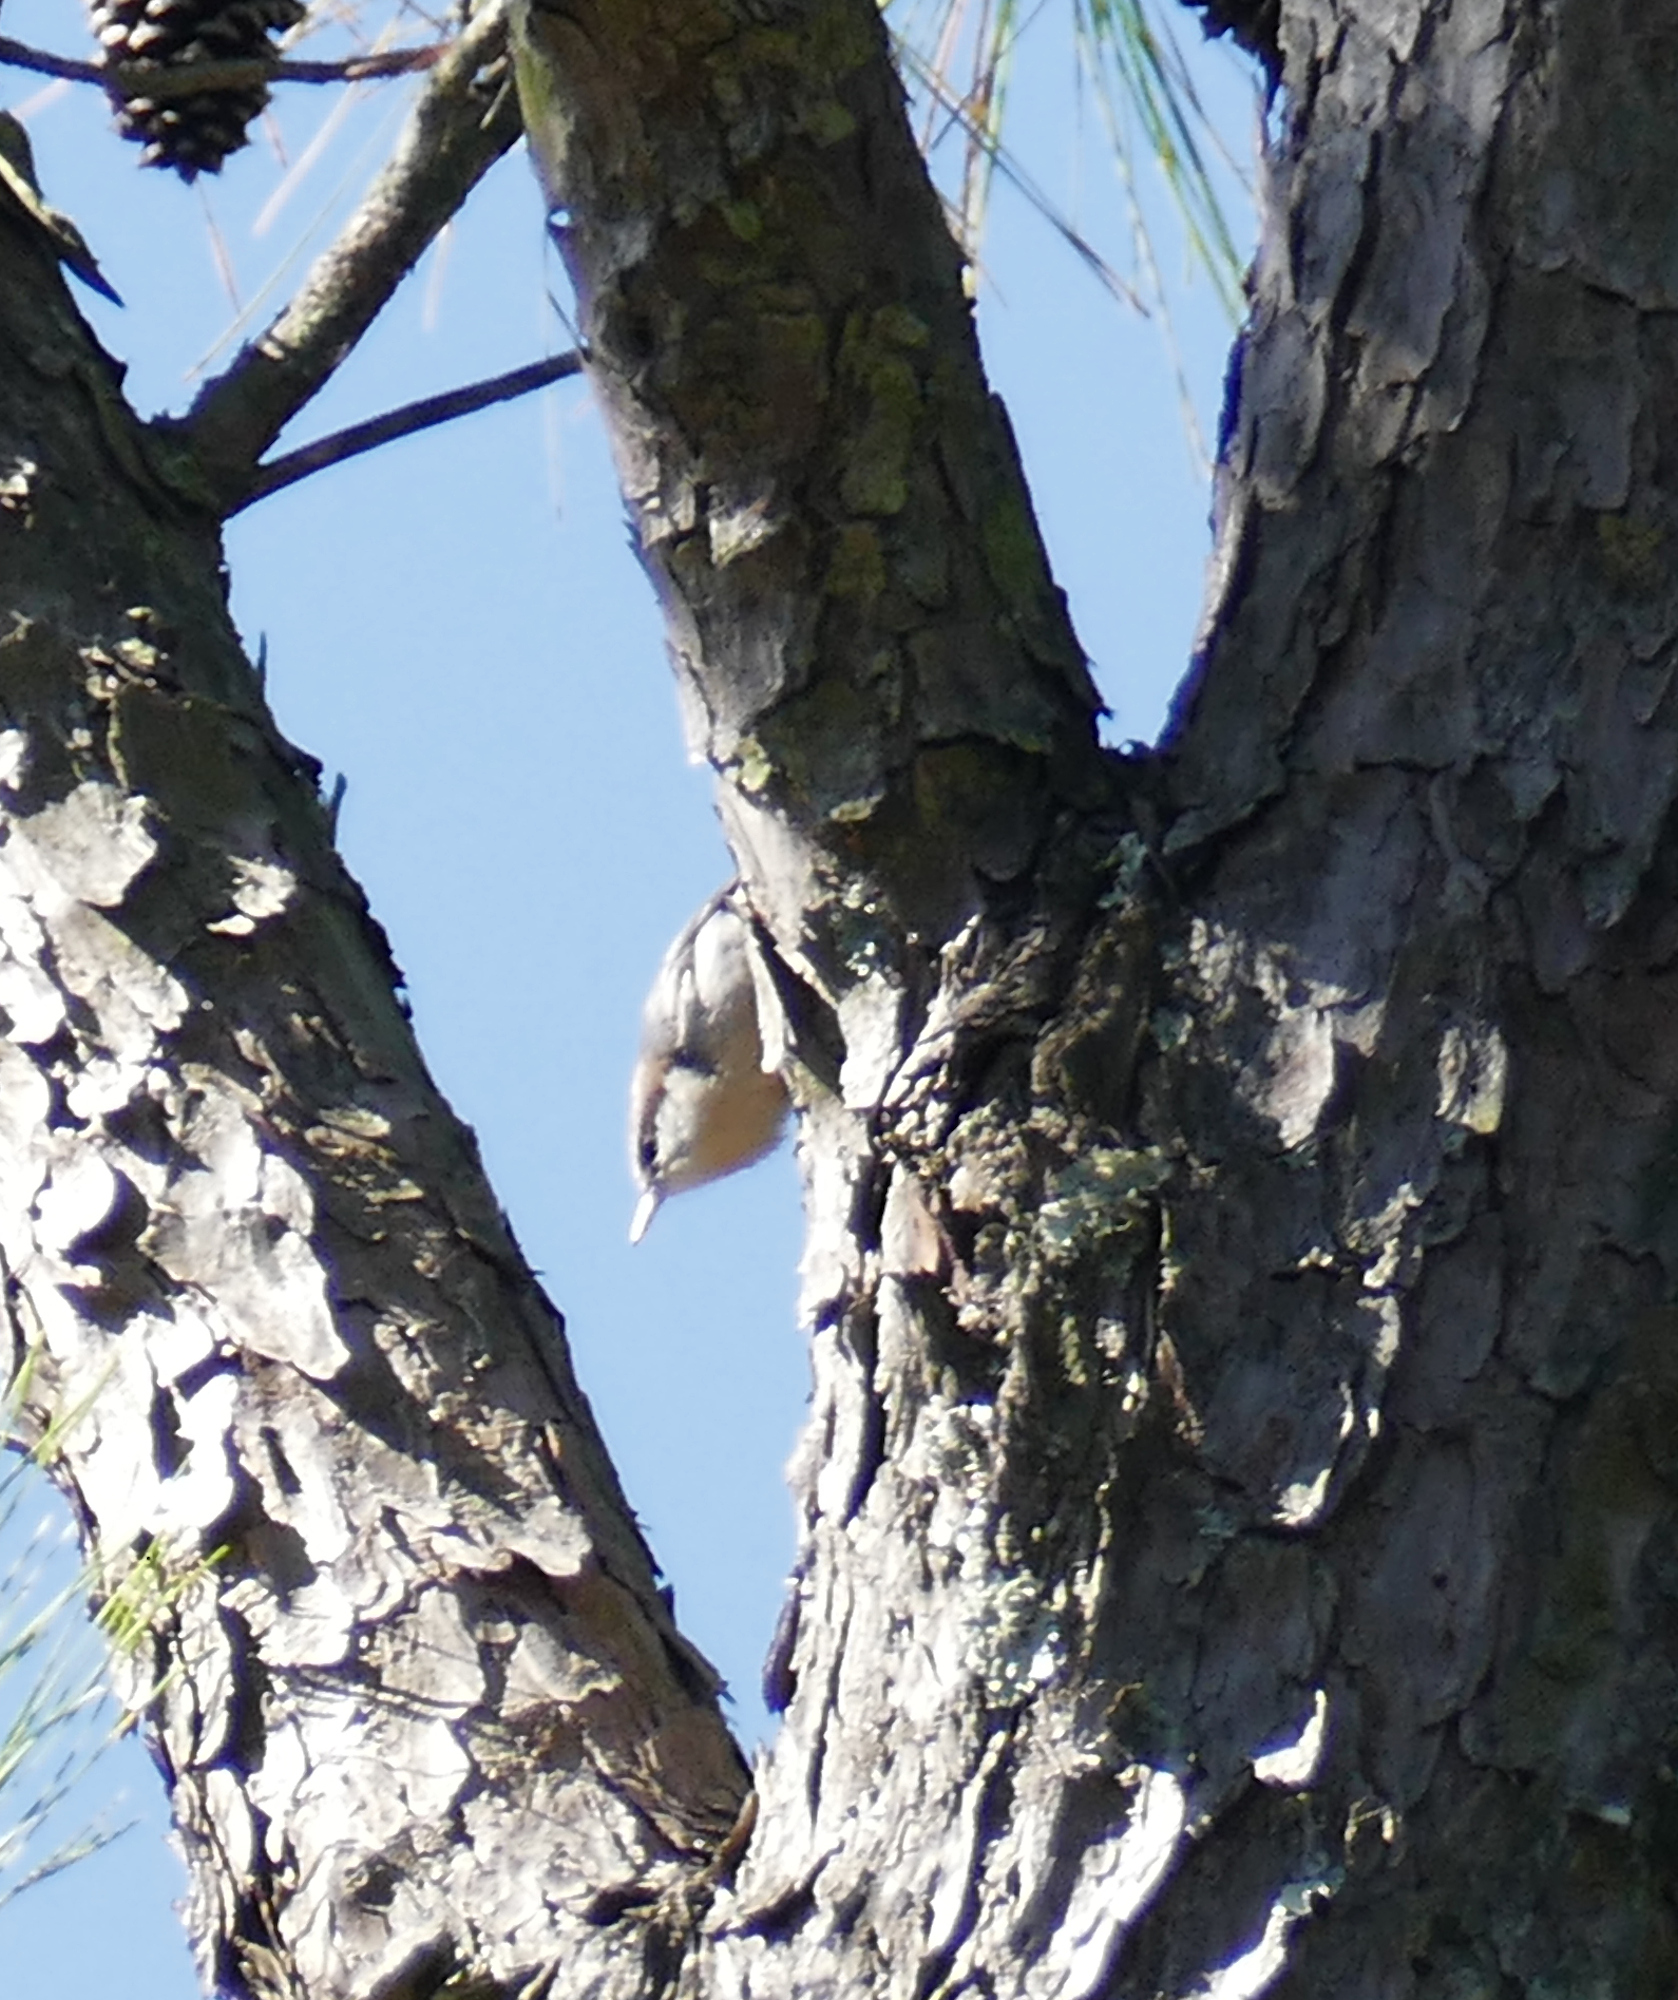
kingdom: Animalia
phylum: Chordata
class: Aves
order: Passeriformes
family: Sittidae
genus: Sitta
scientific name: Sitta pusilla
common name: Brown-headed nuthatch
